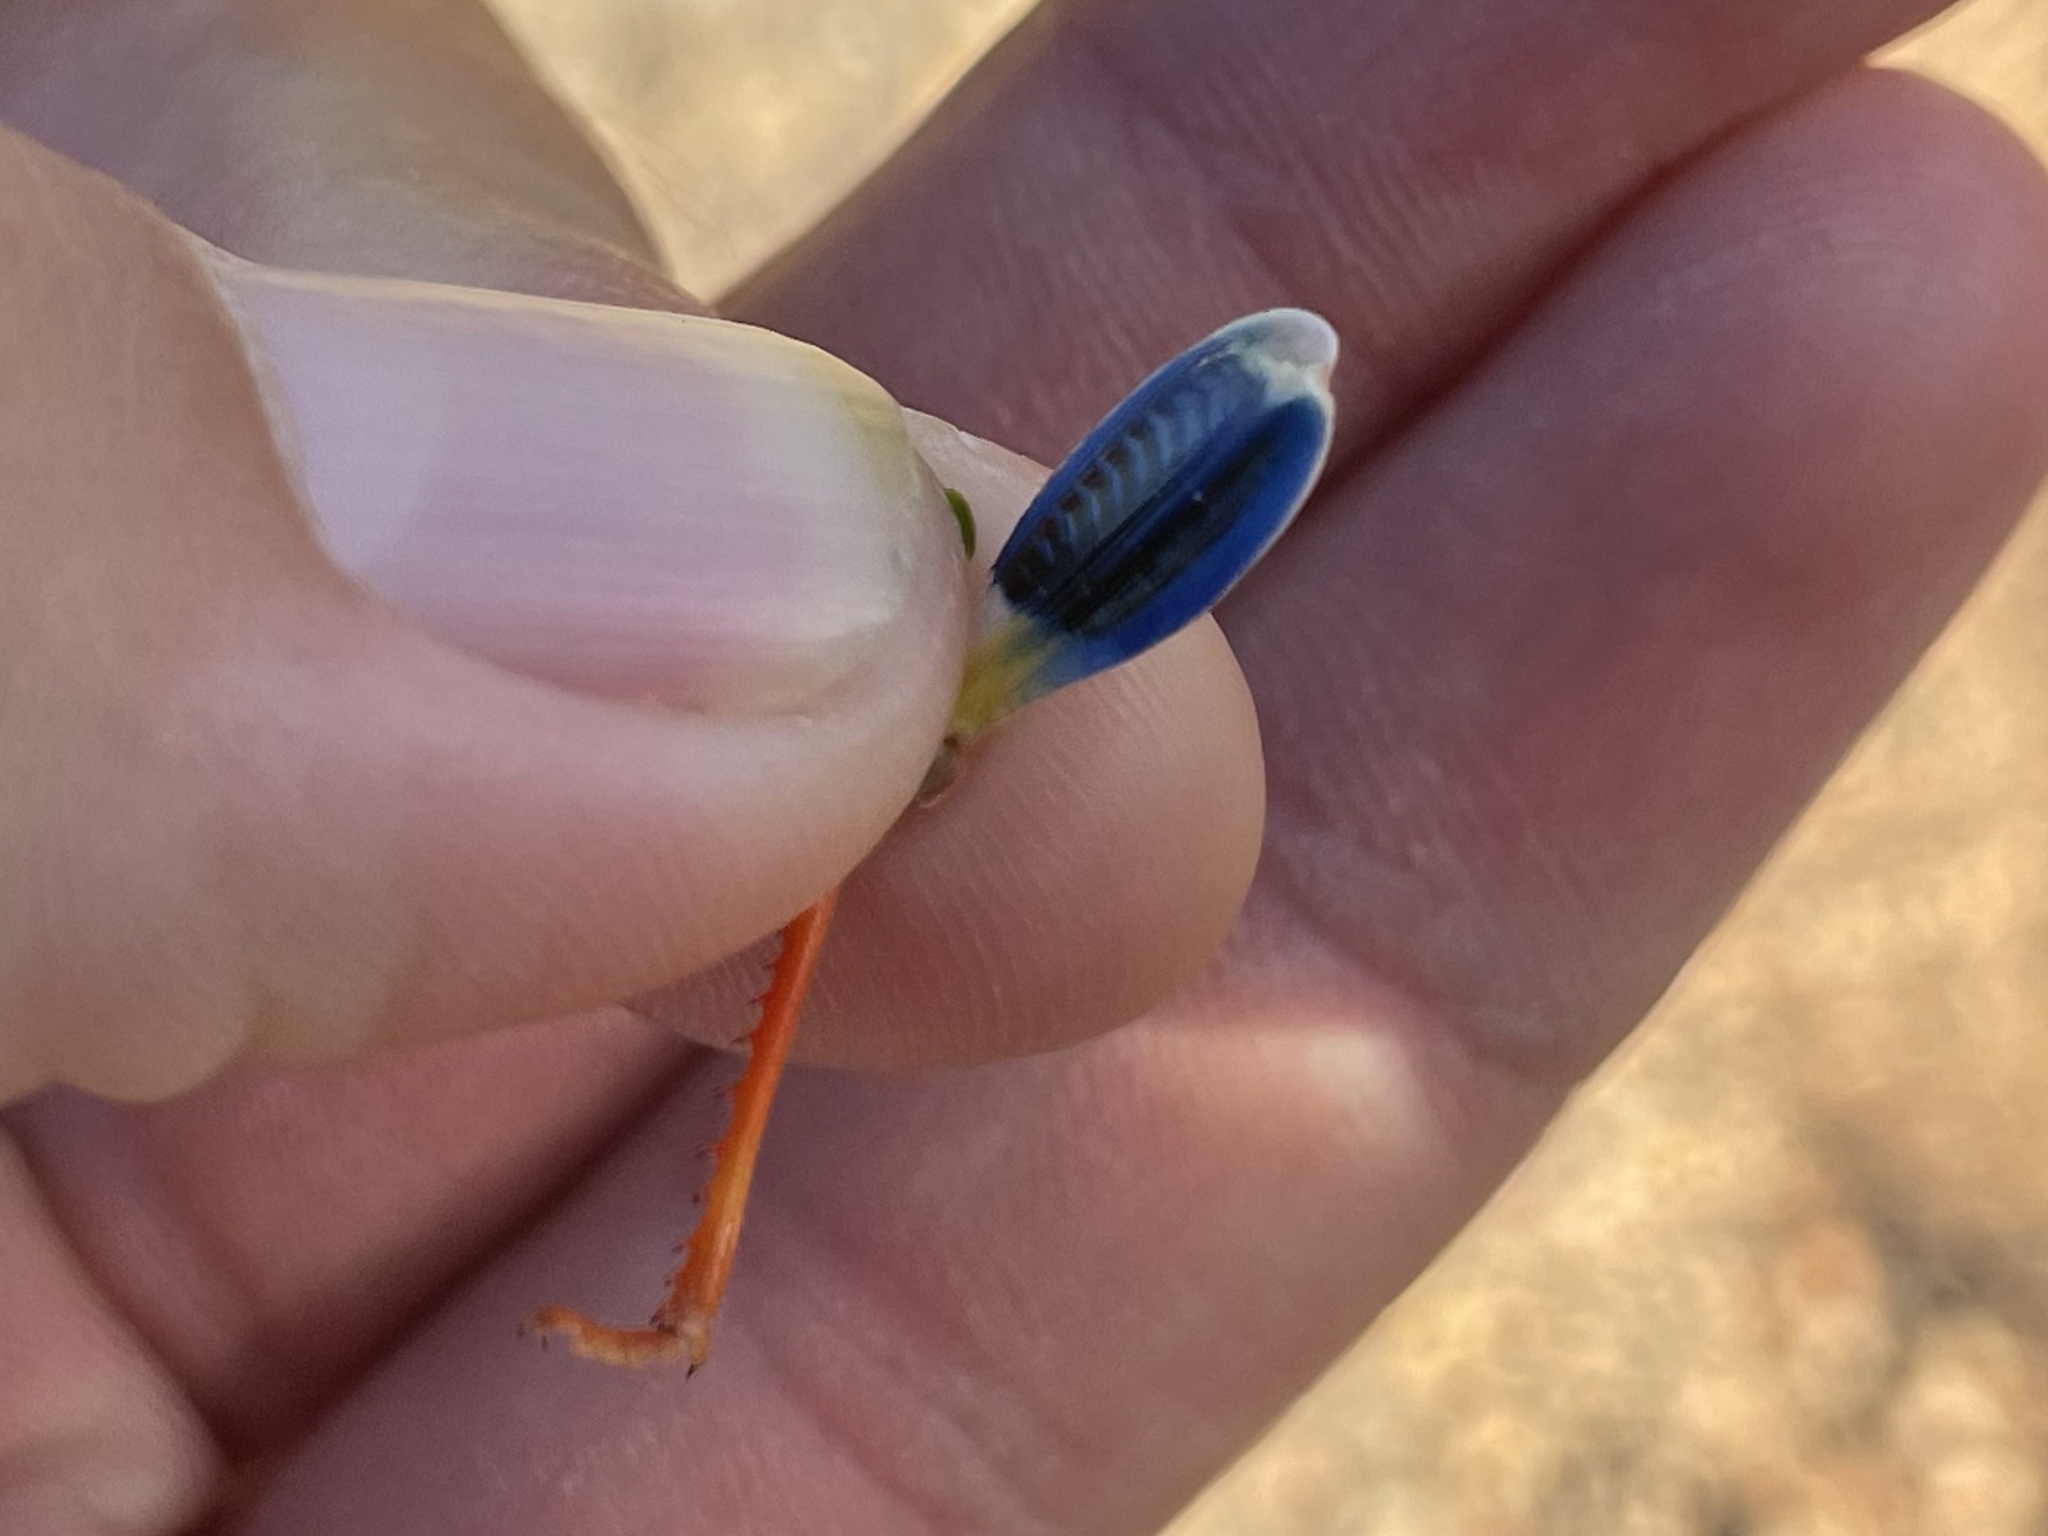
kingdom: Animalia
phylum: Arthropoda
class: Insecta
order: Orthoptera
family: Acrididae
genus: Hadrotettix
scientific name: Hadrotettix trifasciatus
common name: Threebanded grasshopper
